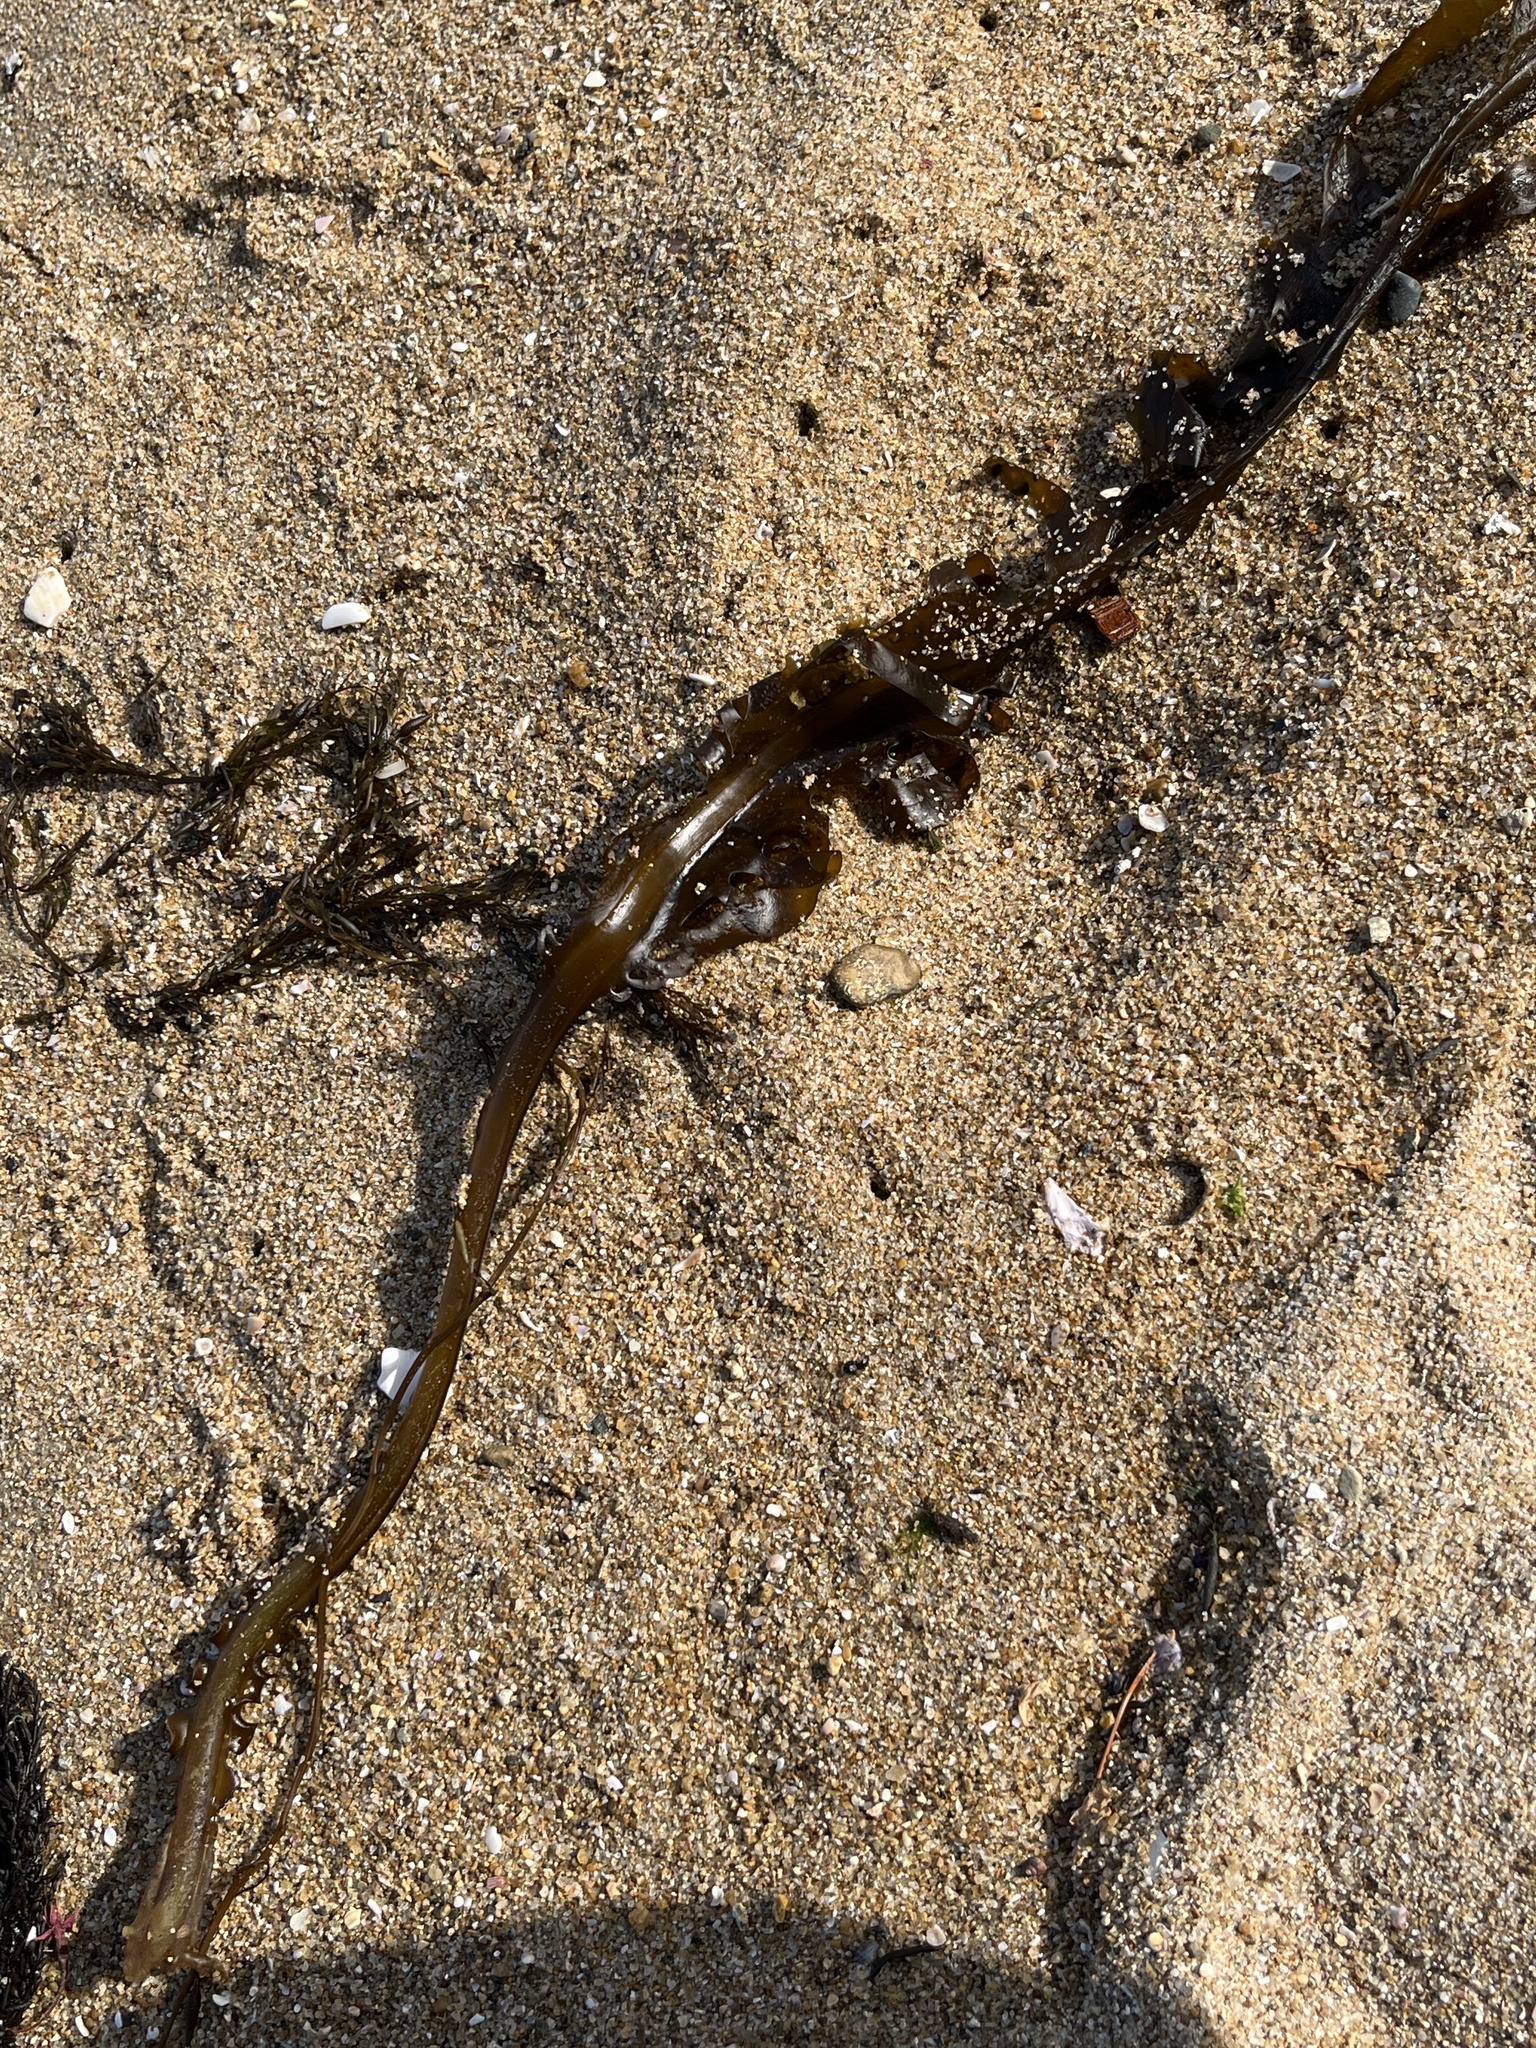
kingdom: Chromista
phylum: Ochrophyta
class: Phaeophyceae
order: Laminariales
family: Alariaceae
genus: Undaria
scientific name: Undaria pinnatifida
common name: Asian kelp
